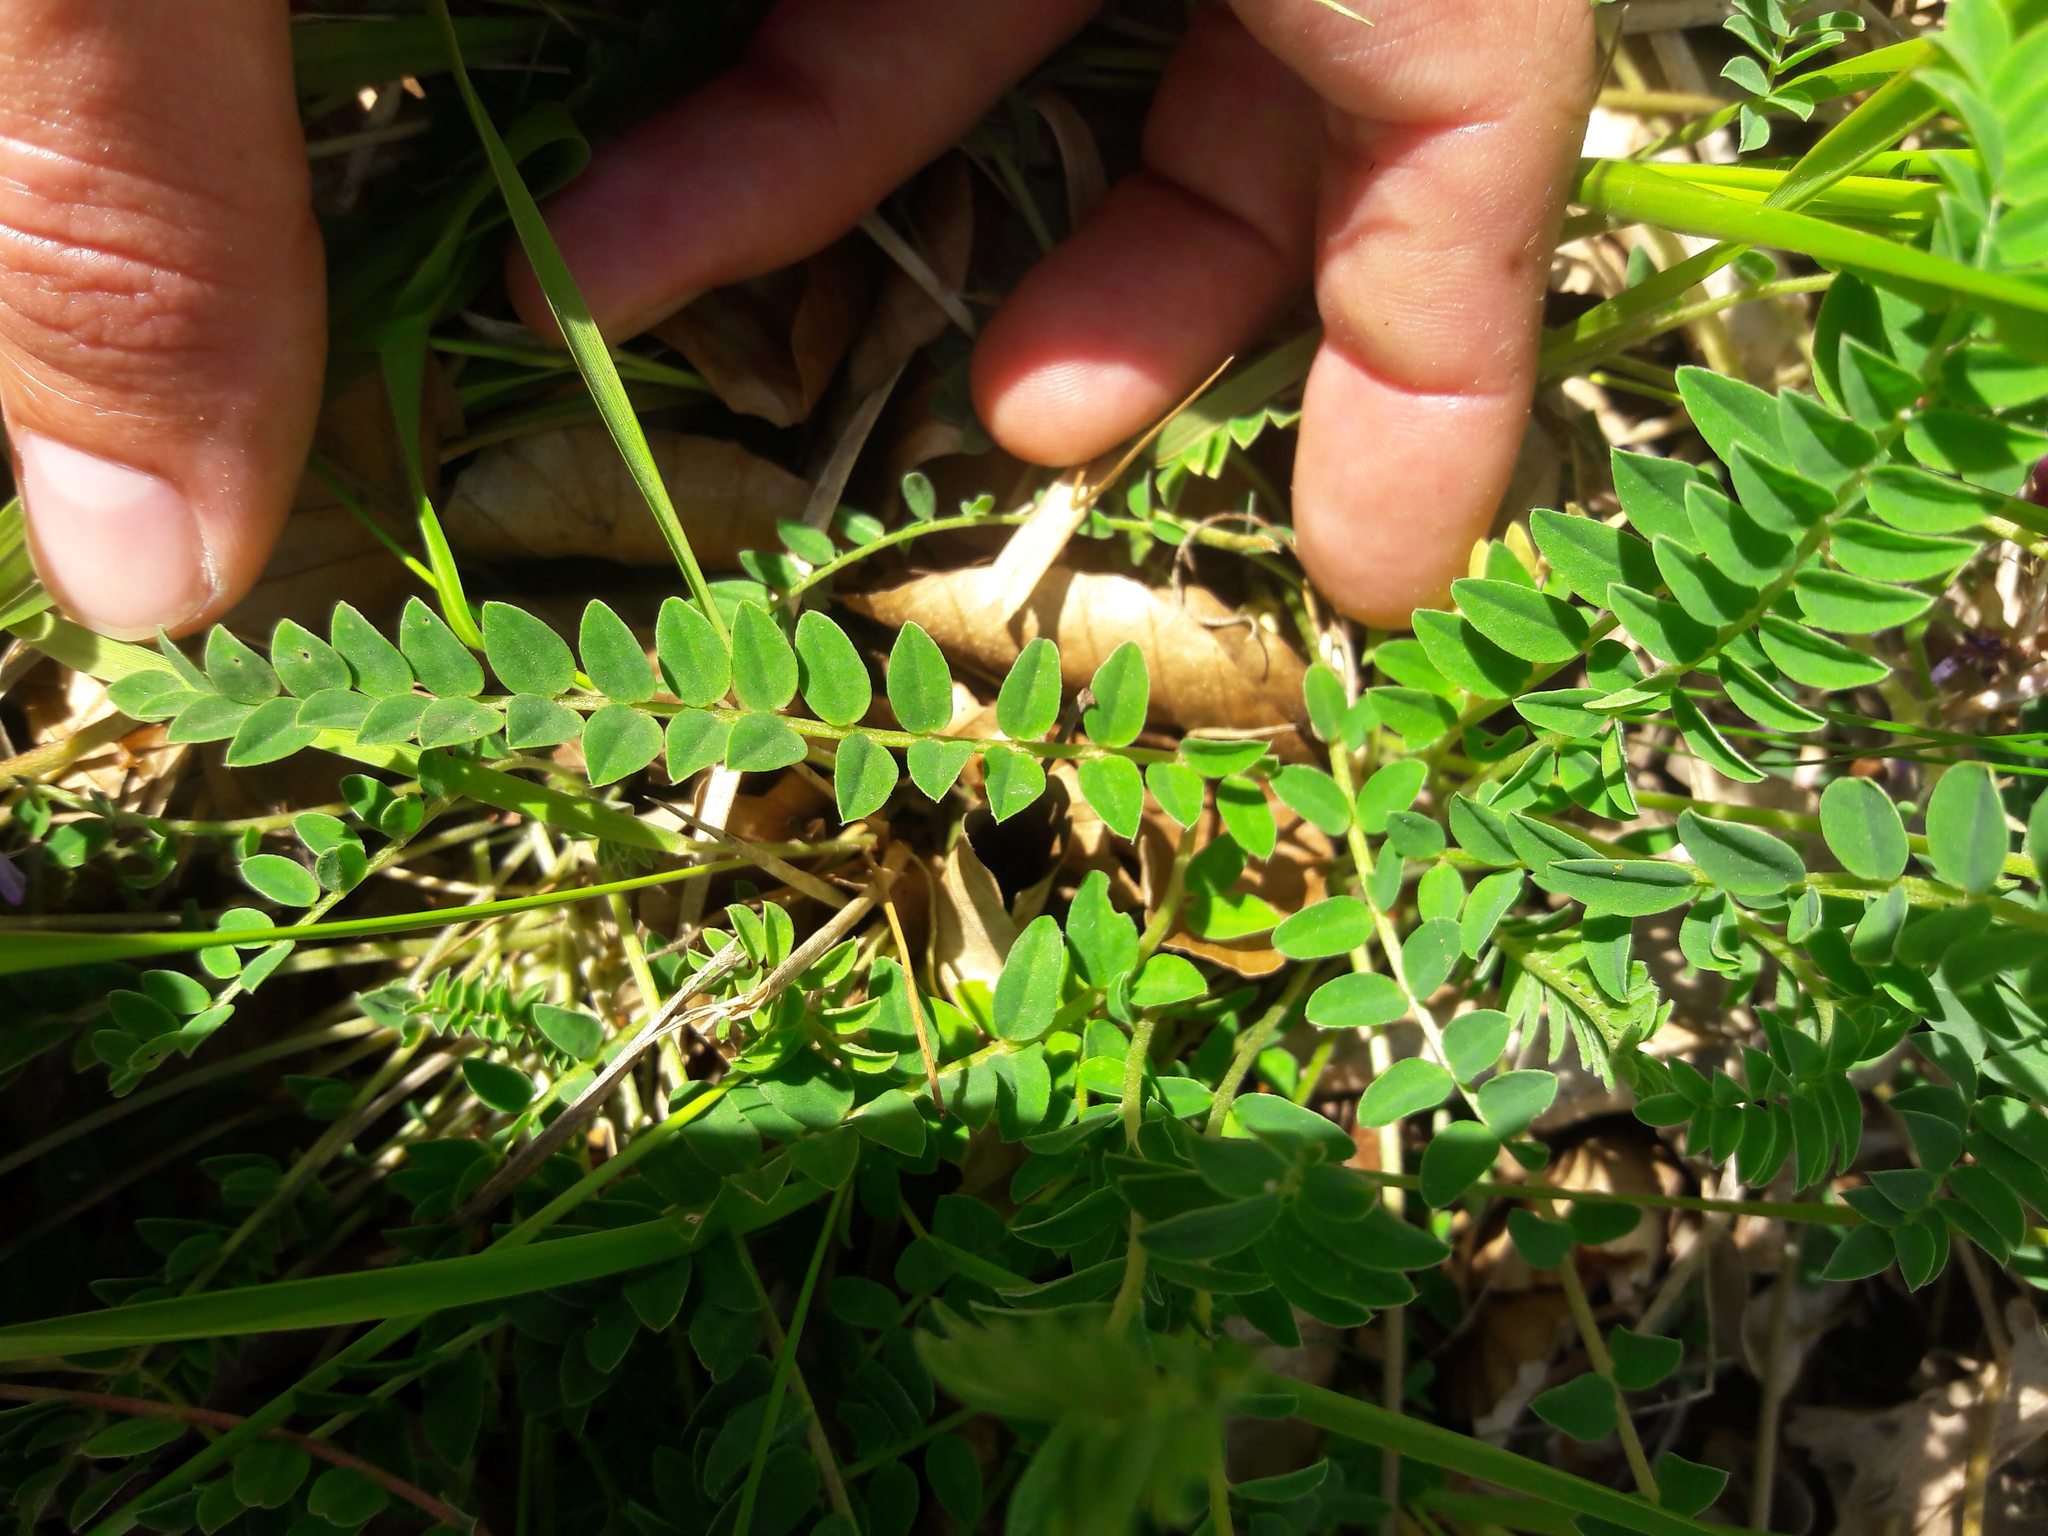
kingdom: Plantae
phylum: Tracheophyta
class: Magnoliopsida
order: Fabales
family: Fabaceae
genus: Astragalus
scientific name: Astragalus monspessulanus
